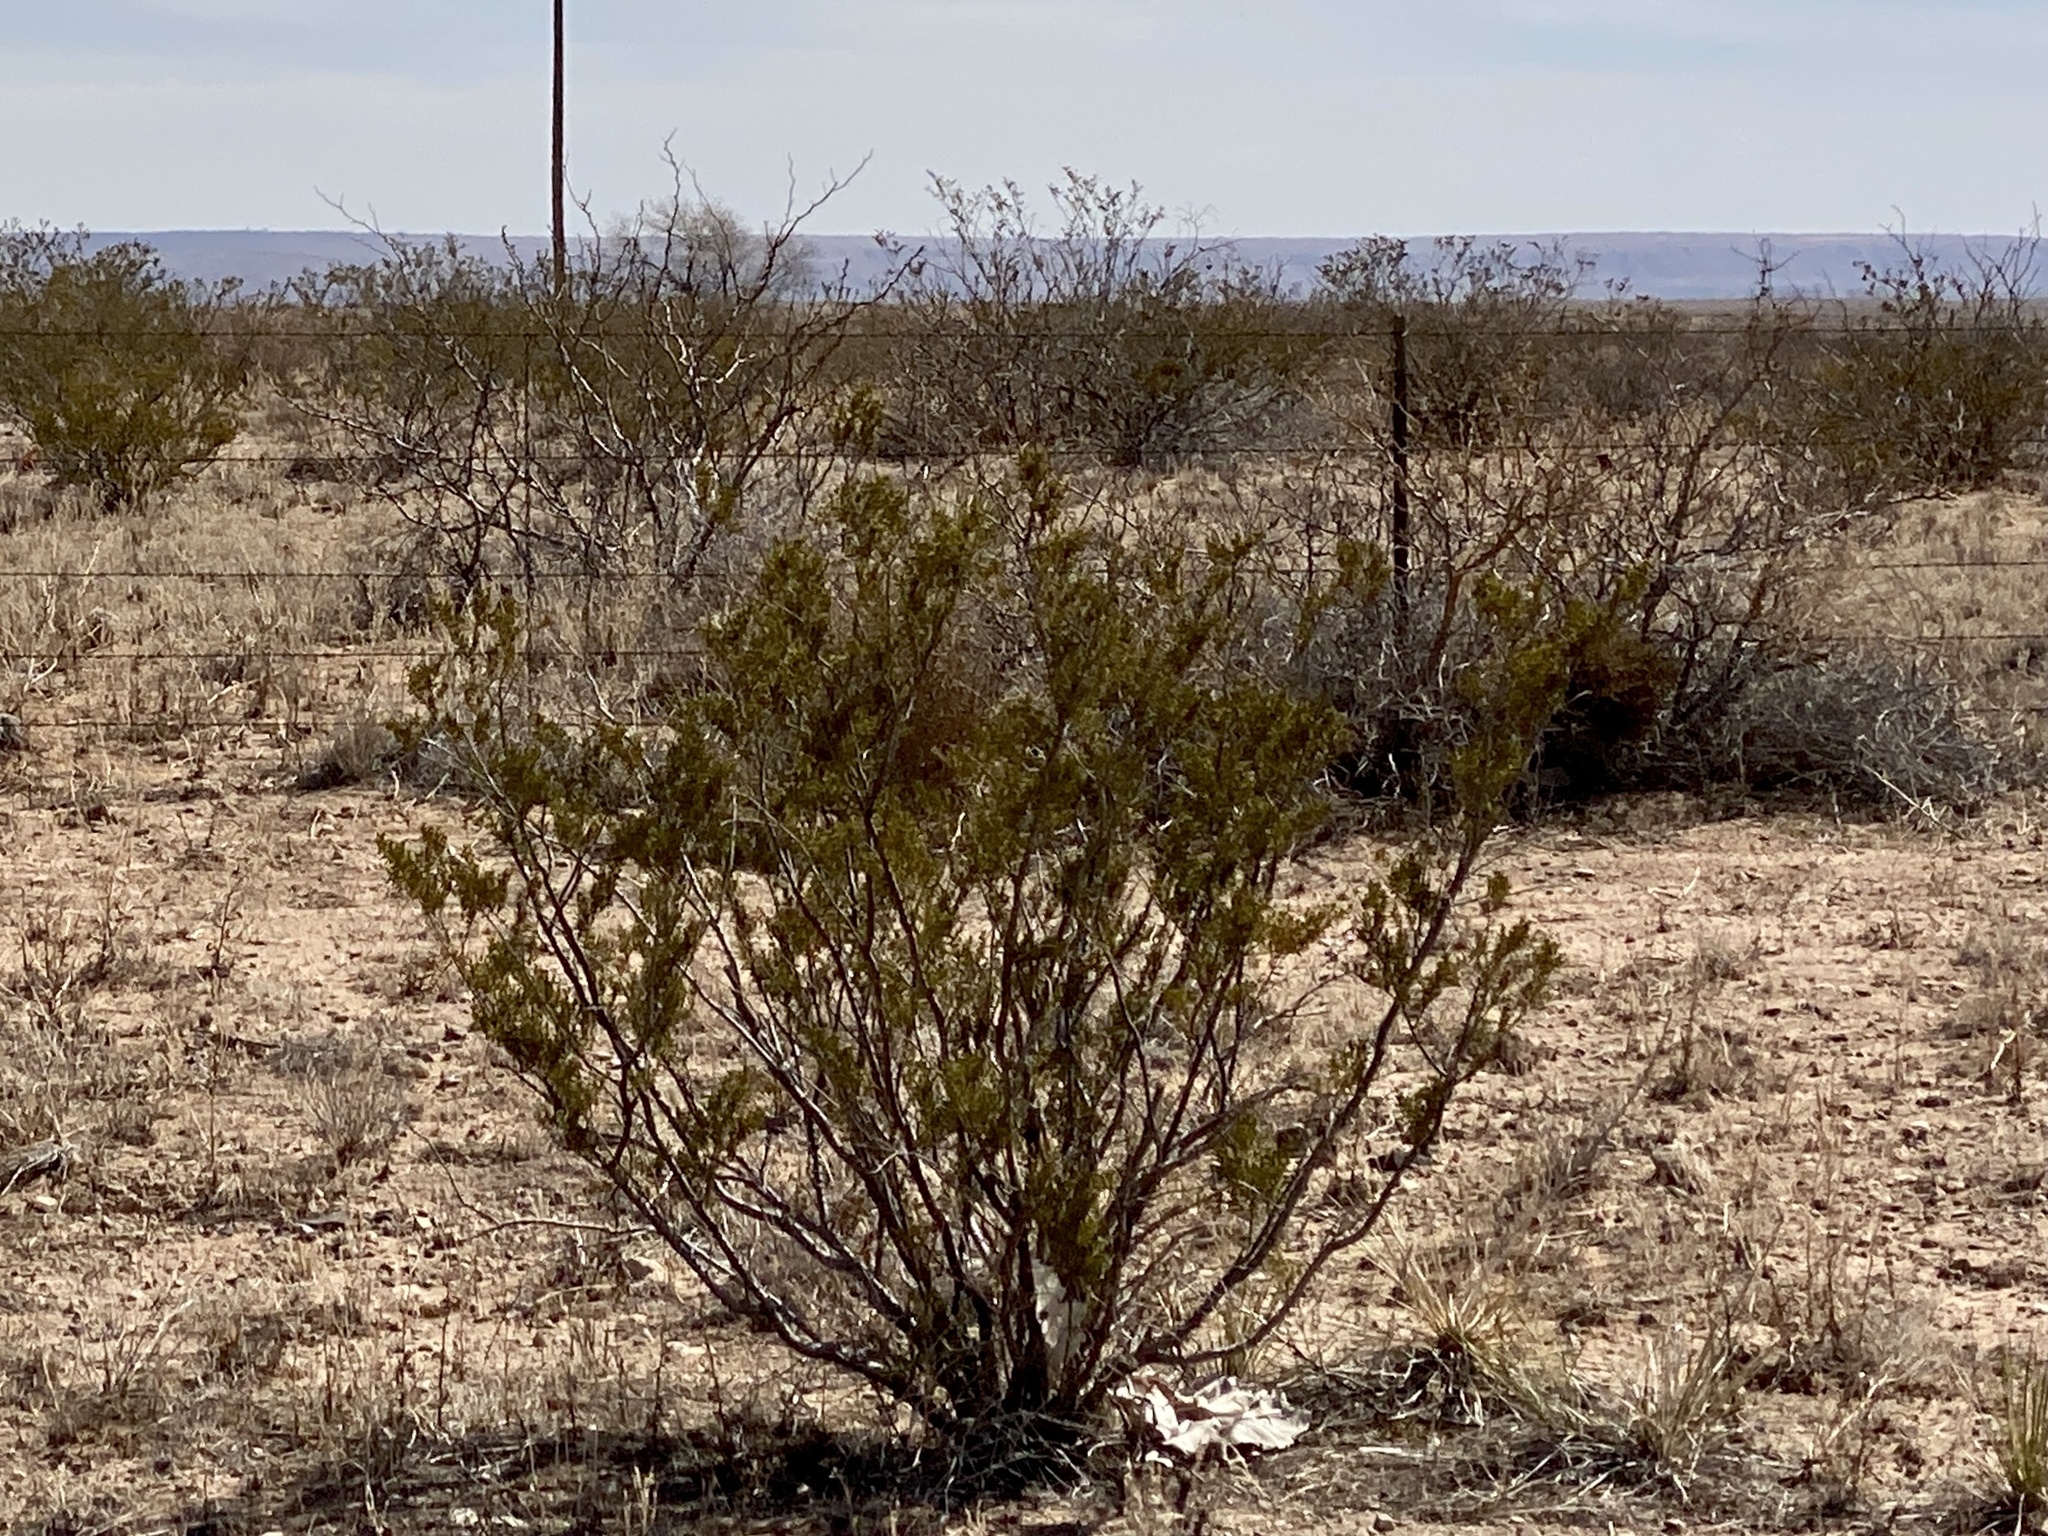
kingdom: Plantae
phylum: Tracheophyta
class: Magnoliopsida
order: Zygophyllales
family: Zygophyllaceae
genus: Larrea
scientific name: Larrea tridentata
